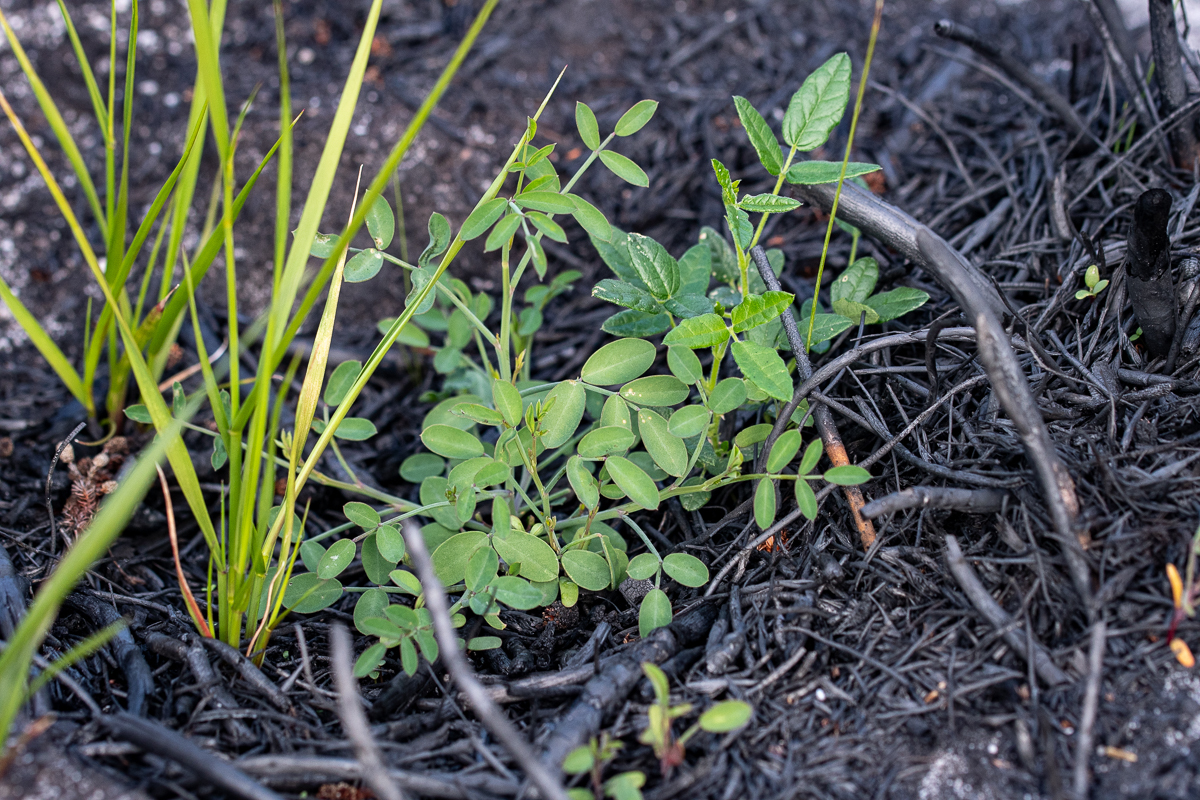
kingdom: Plantae
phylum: Tracheophyta
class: Magnoliopsida
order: Fabales
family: Fabaceae
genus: Indigofera
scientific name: Indigofera ionii
